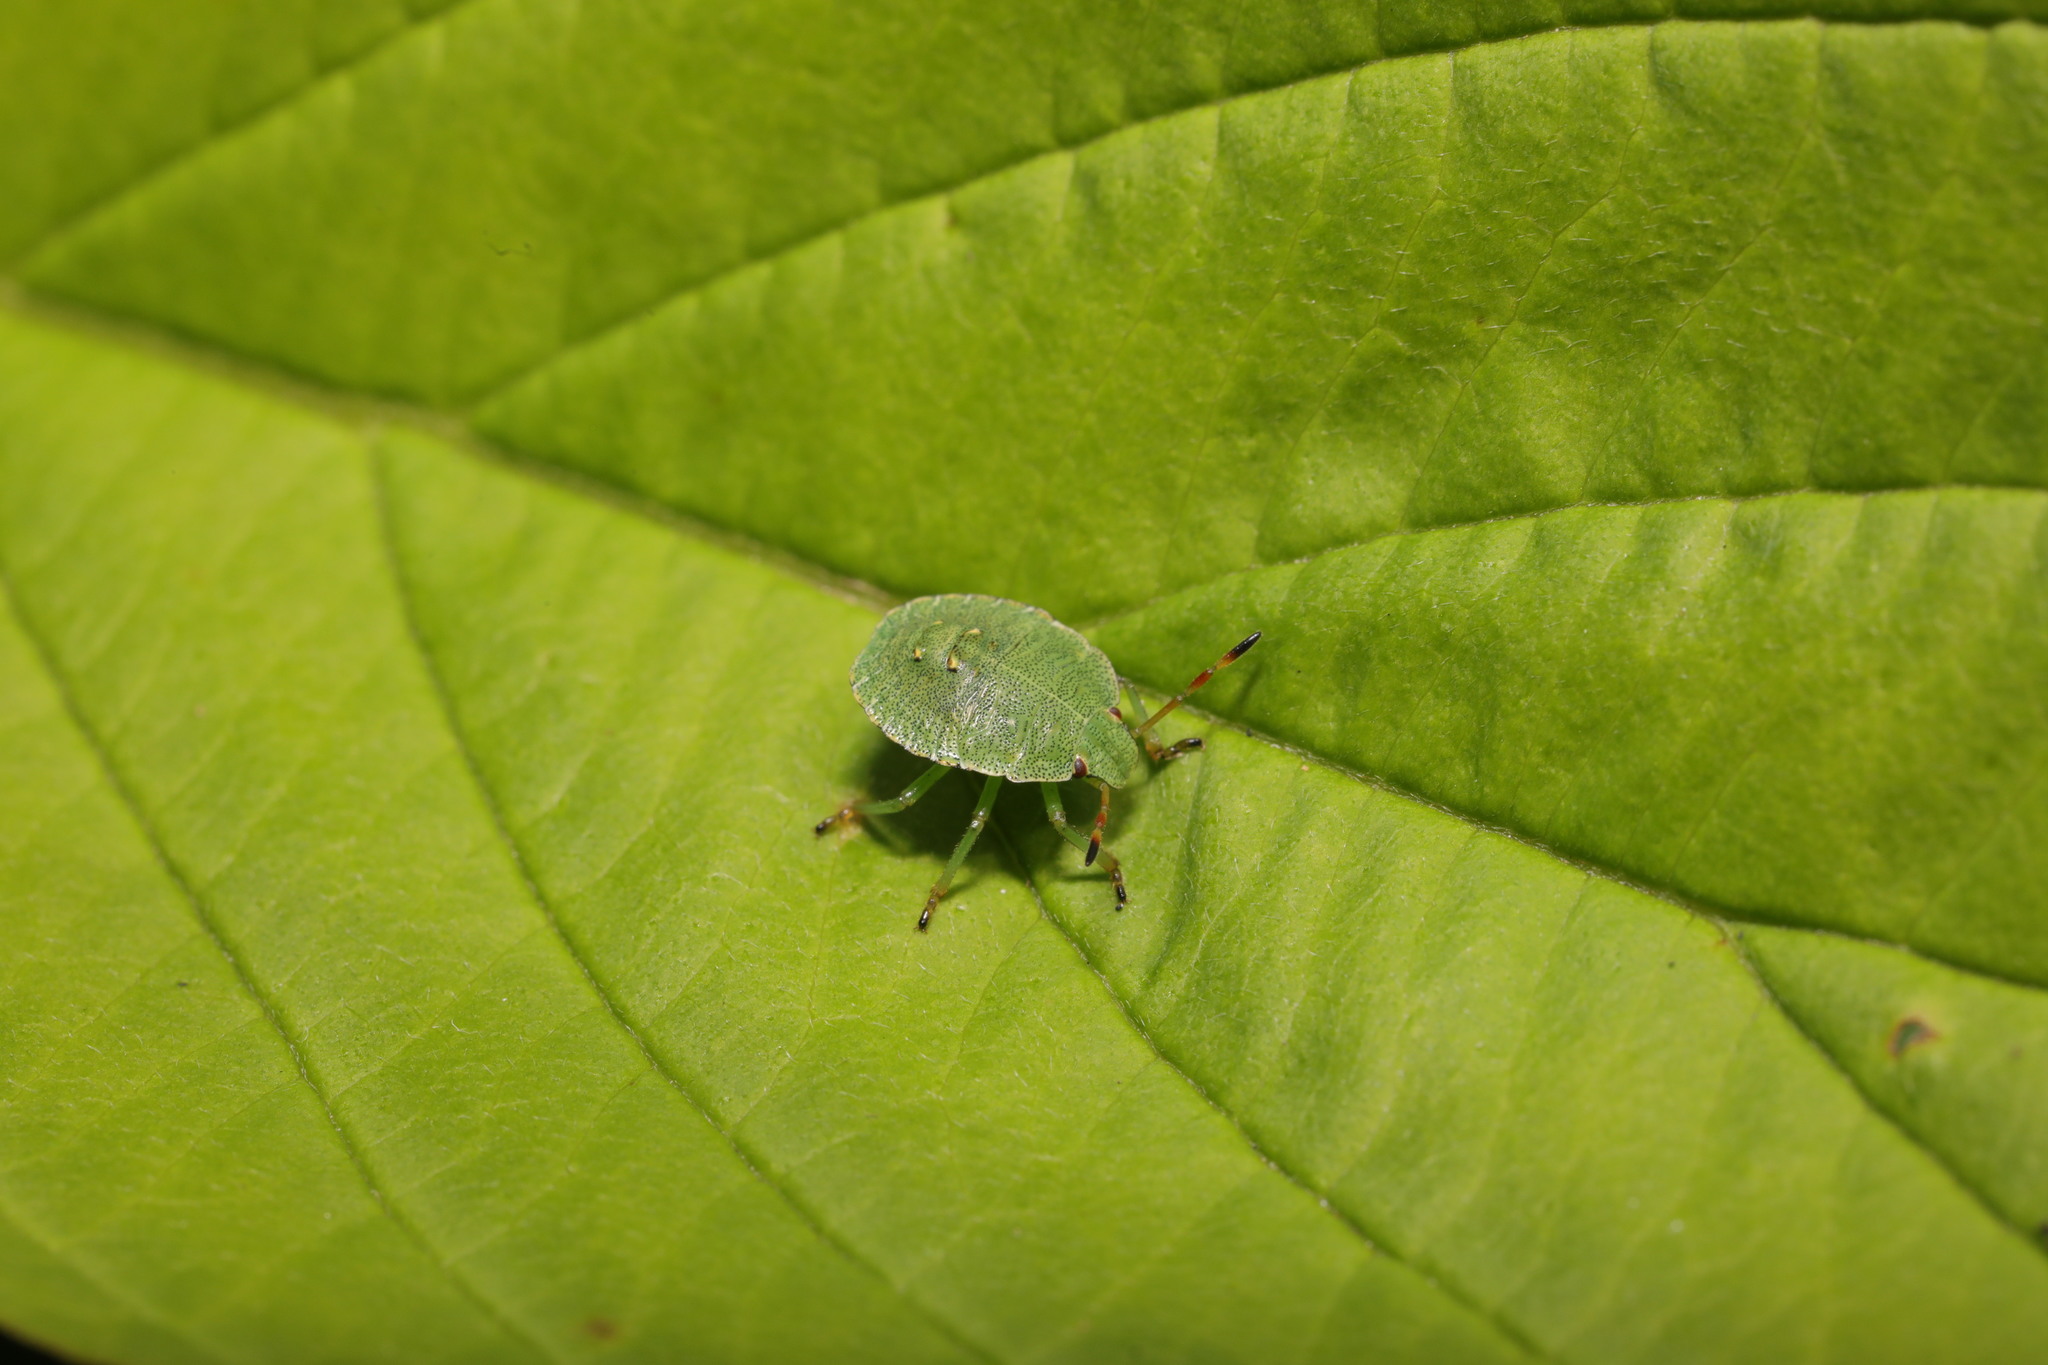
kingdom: Animalia
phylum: Arthropoda
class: Insecta
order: Hemiptera
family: Pentatomidae
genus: Palomena
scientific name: Palomena prasina
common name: Green shieldbug
